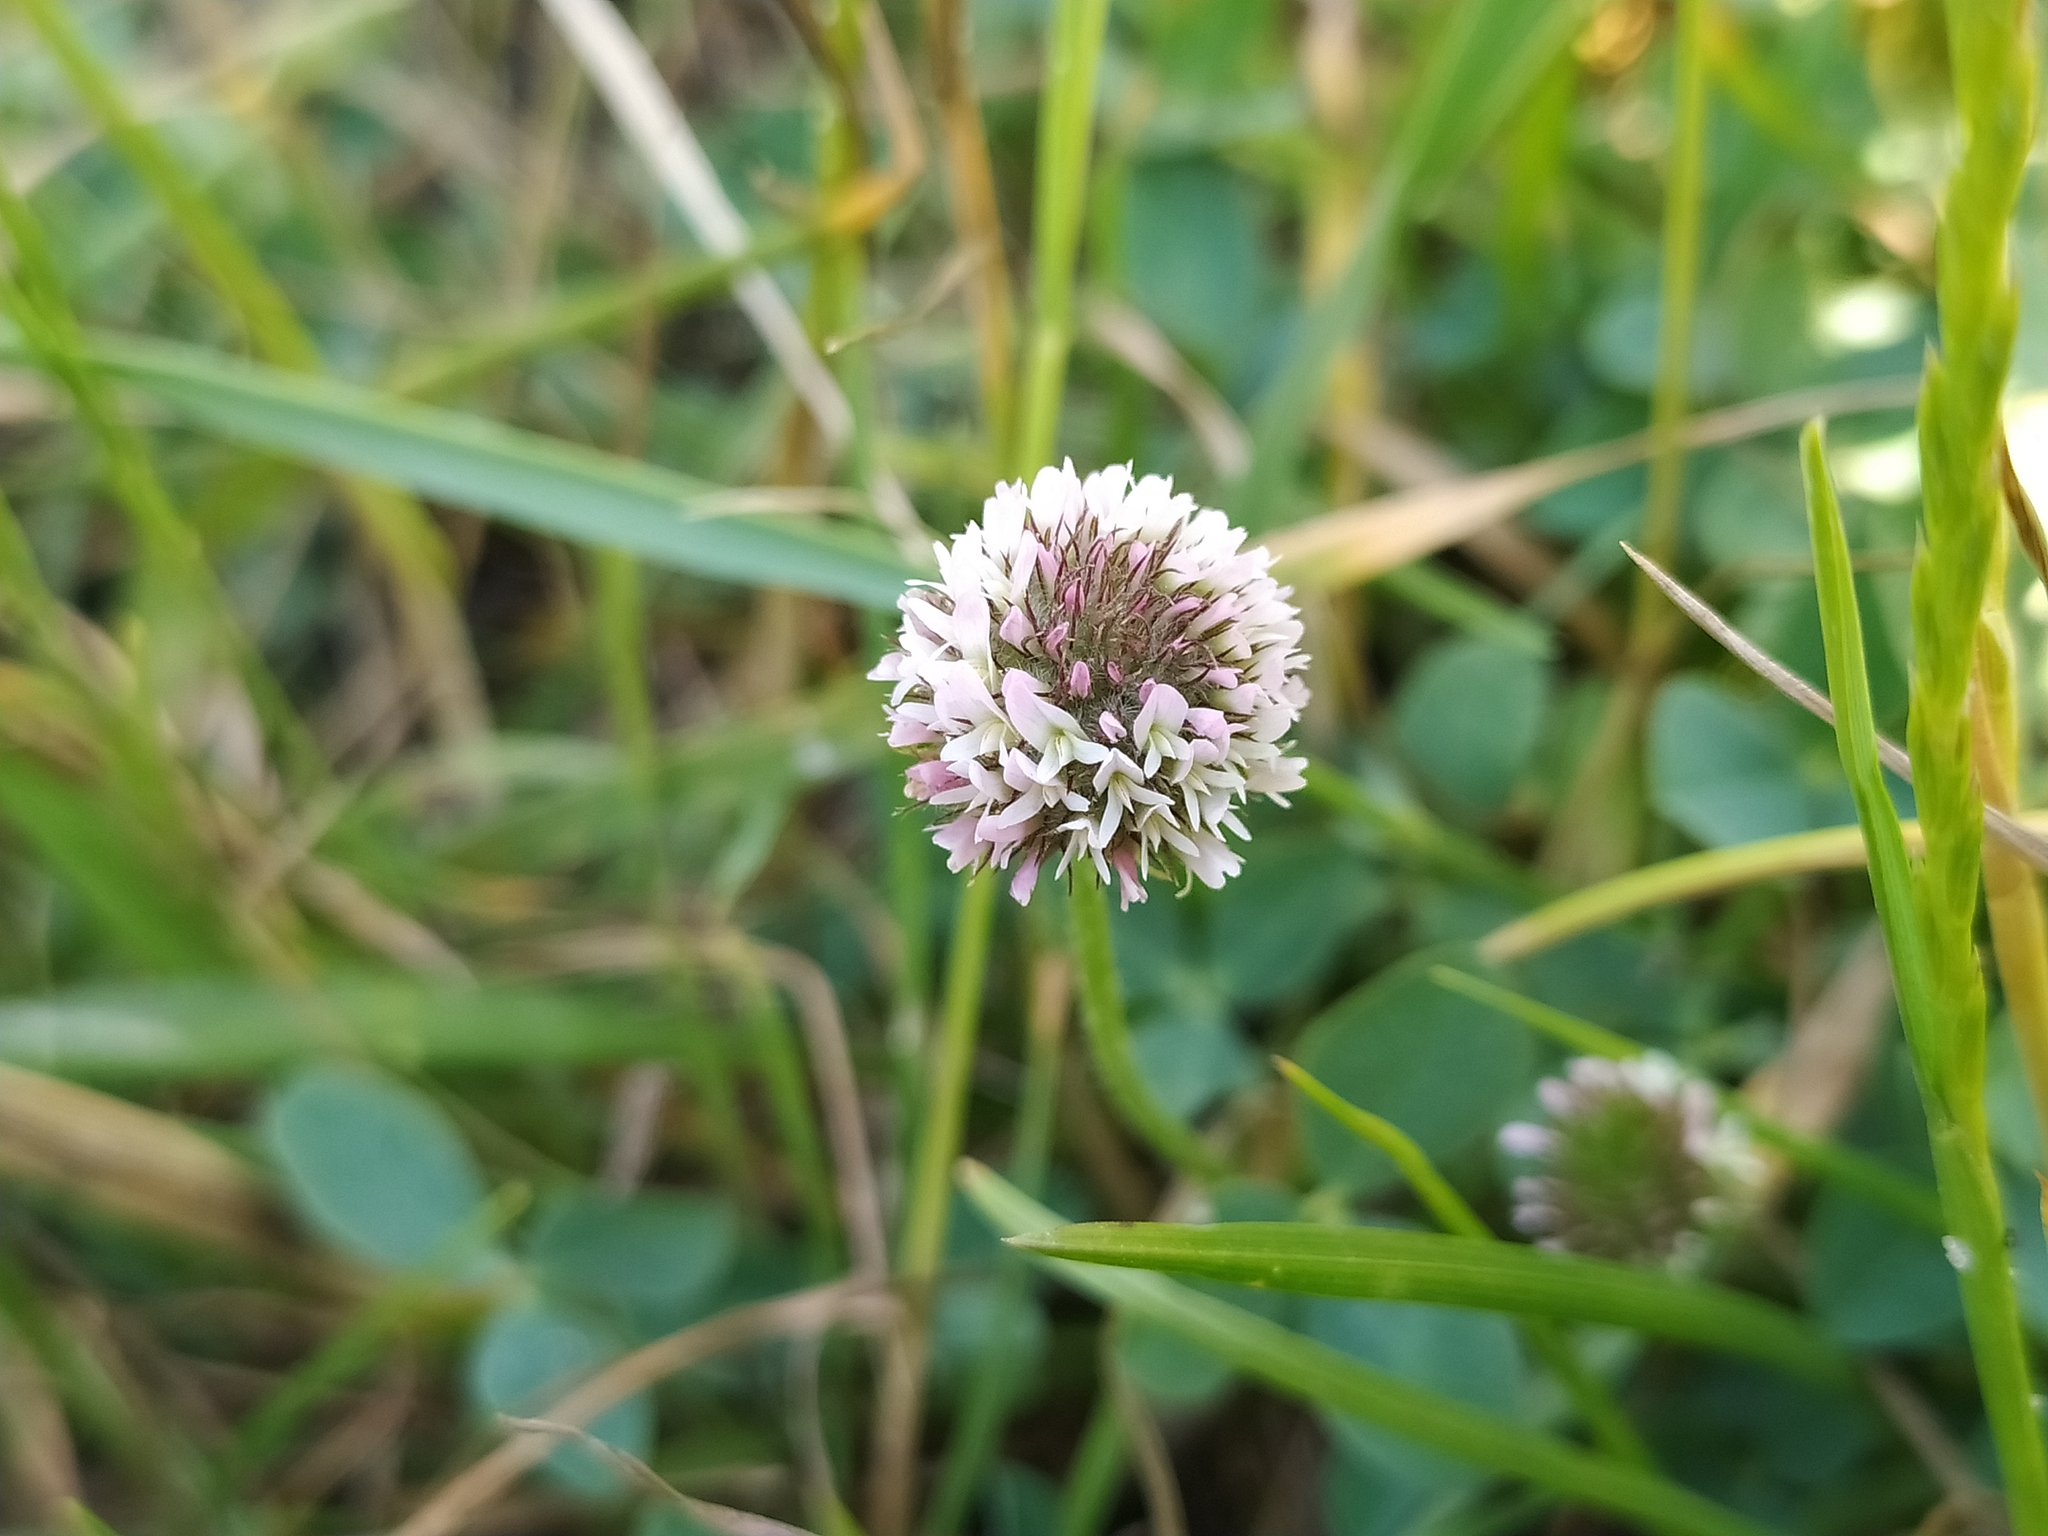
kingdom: Plantae
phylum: Tracheophyta
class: Magnoliopsida
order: Fabales
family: Fabaceae
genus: Trifolium
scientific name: Trifolium fragiferum
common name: Strawberry clover
